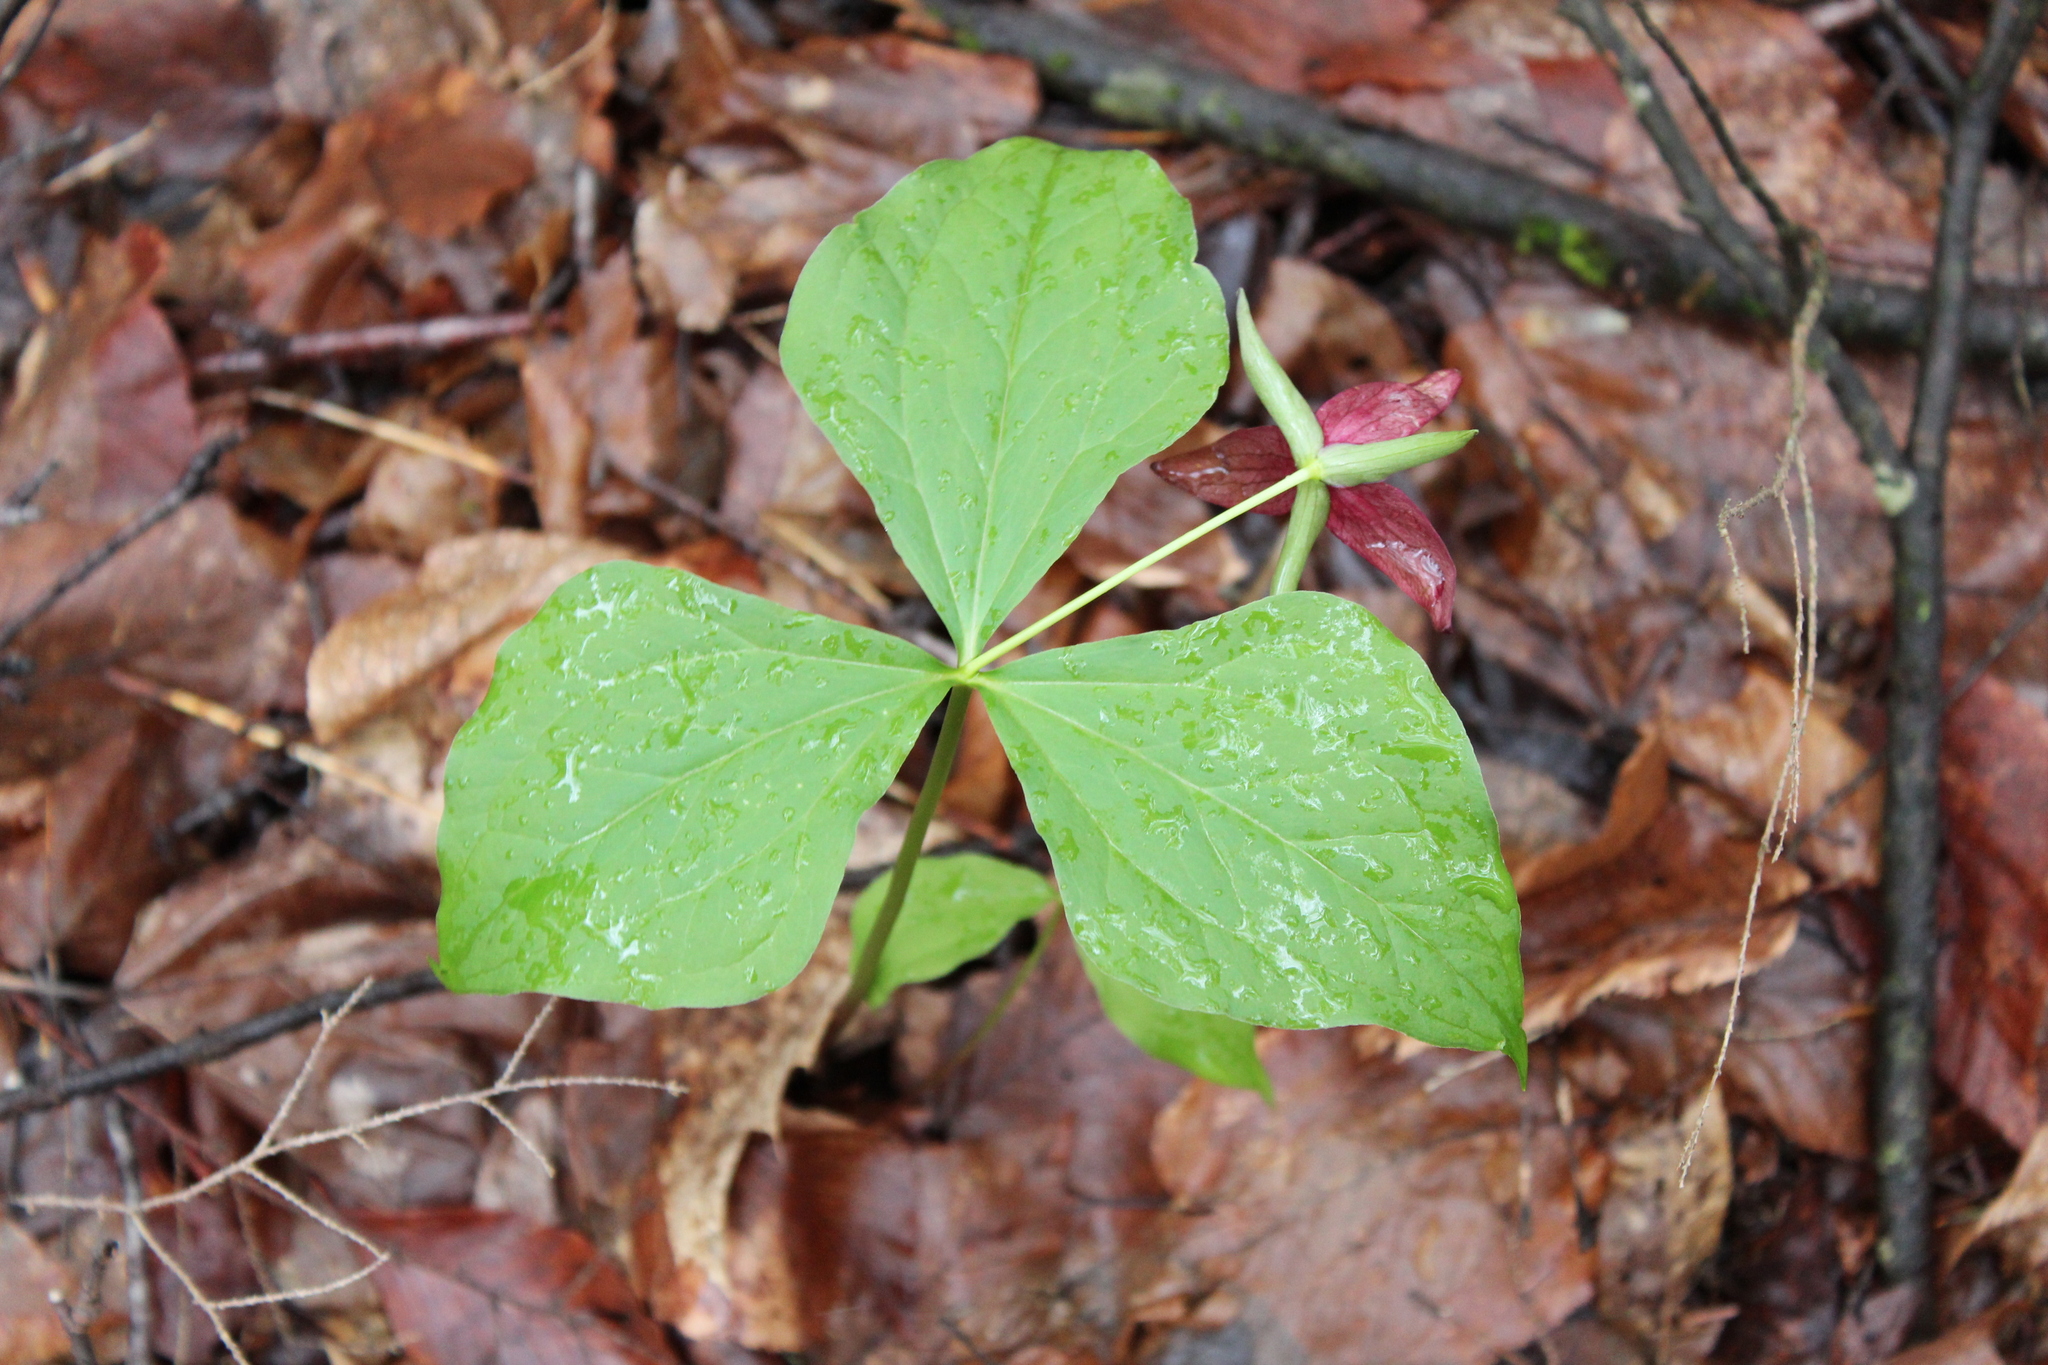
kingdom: Plantae
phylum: Tracheophyta
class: Liliopsida
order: Liliales
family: Melanthiaceae
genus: Trillium
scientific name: Trillium erectum
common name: Purple trillium
